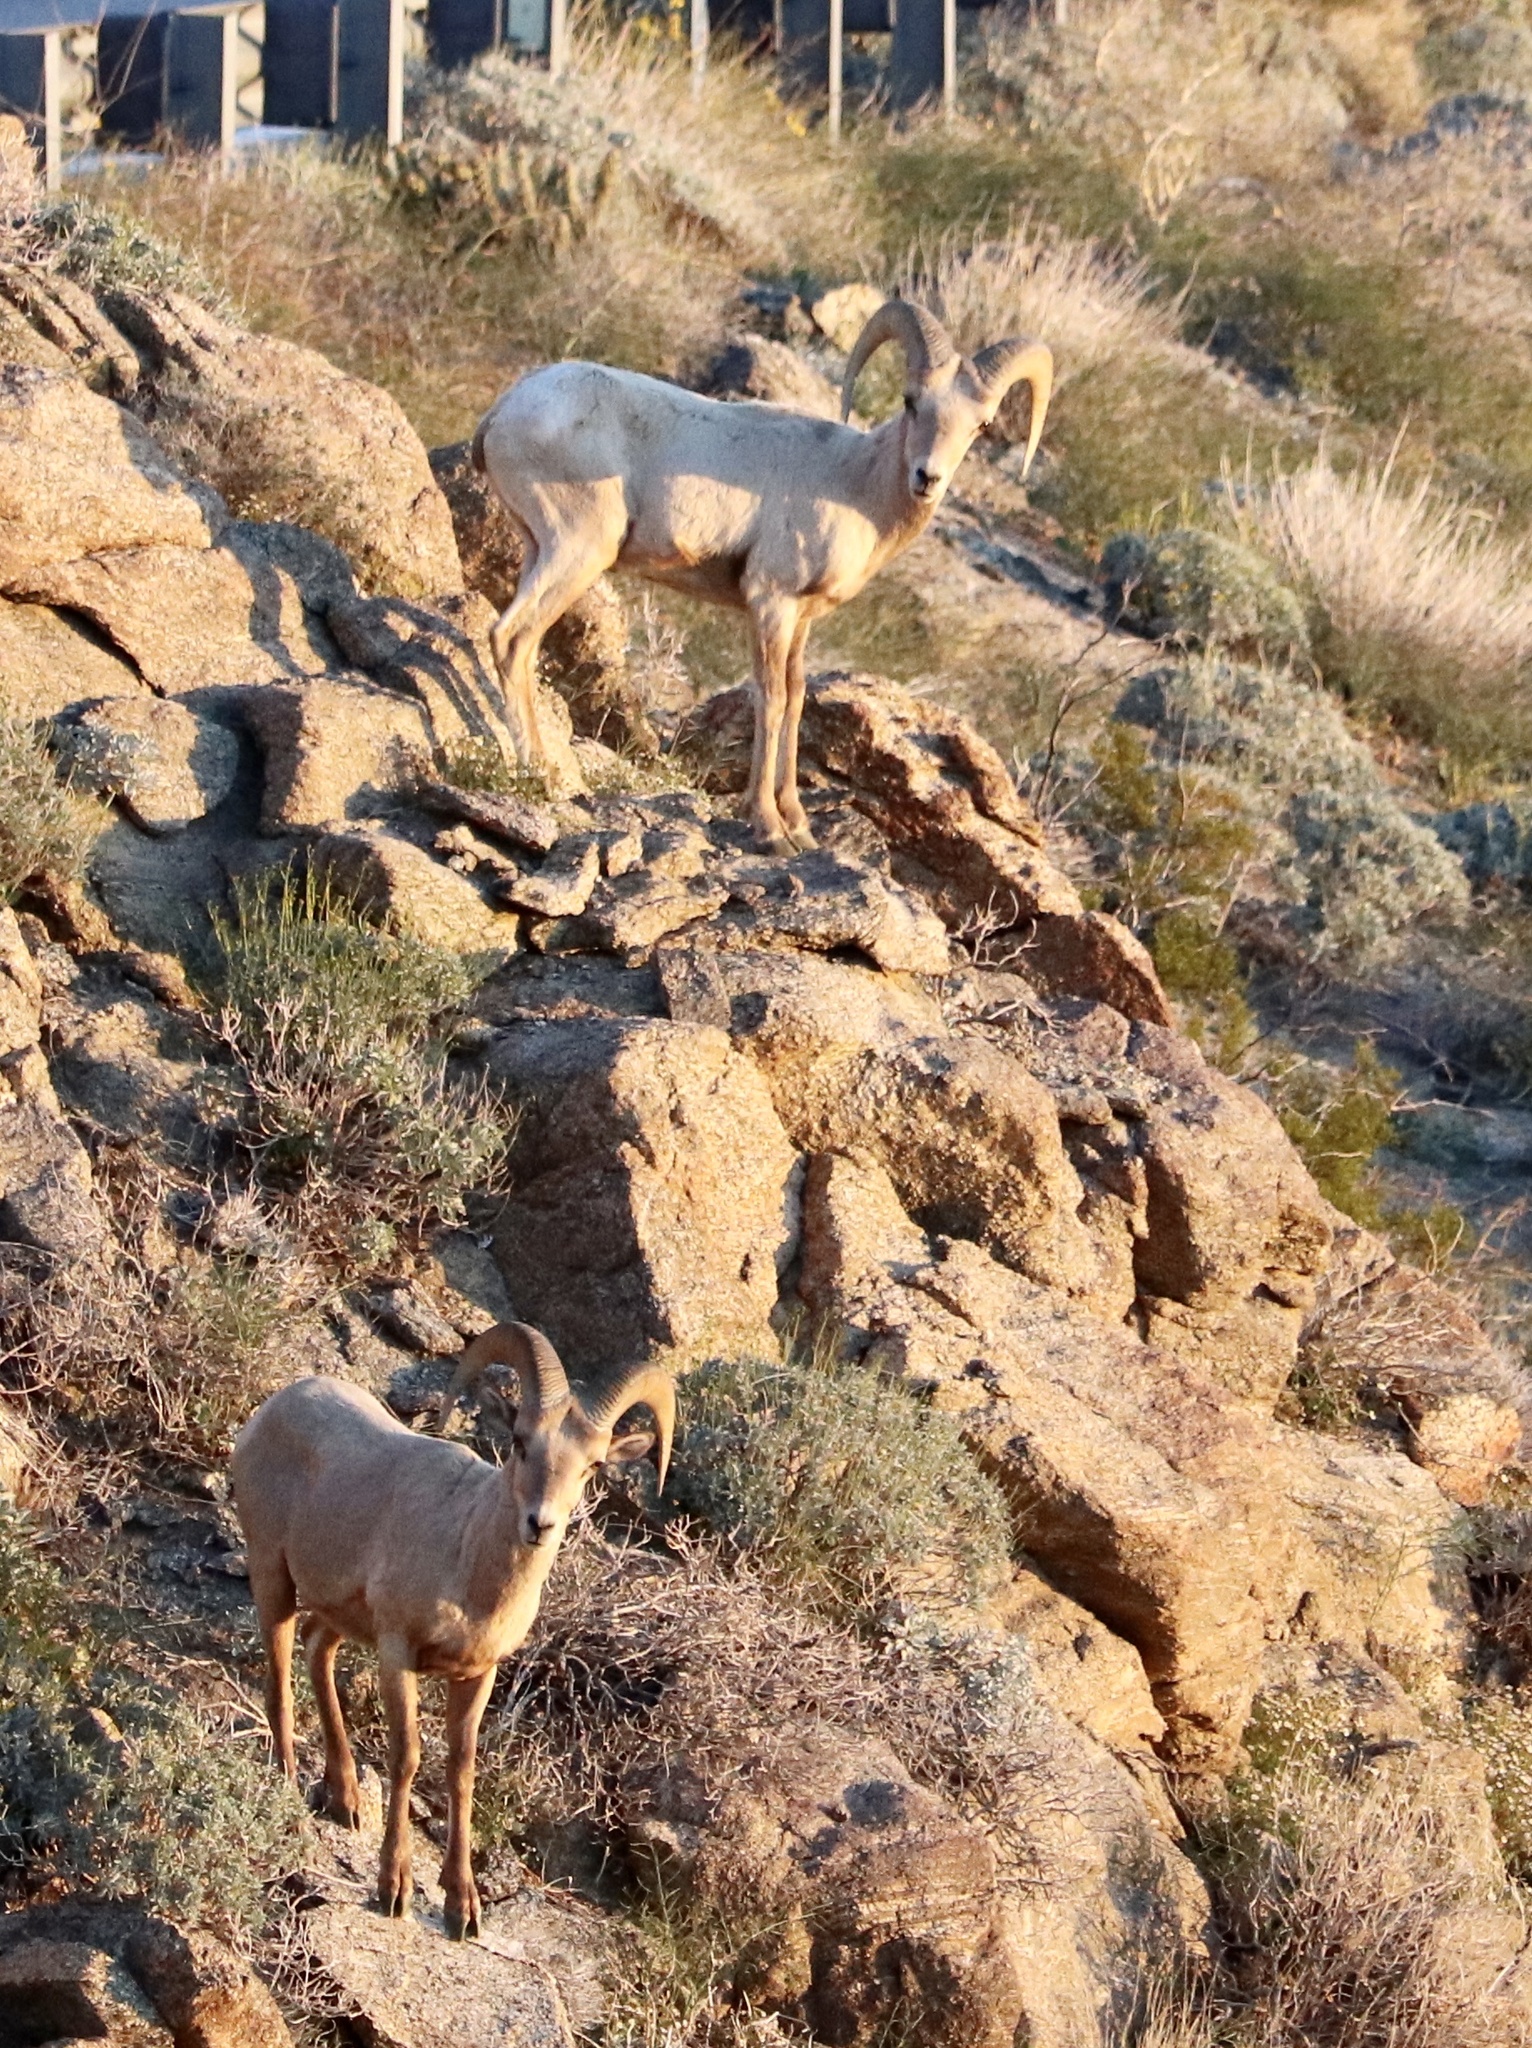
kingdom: Animalia
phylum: Chordata
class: Mammalia
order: Artiodactyla
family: Bovidae
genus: Ovis
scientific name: Ovis canadensis
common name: Bighorn sheep
